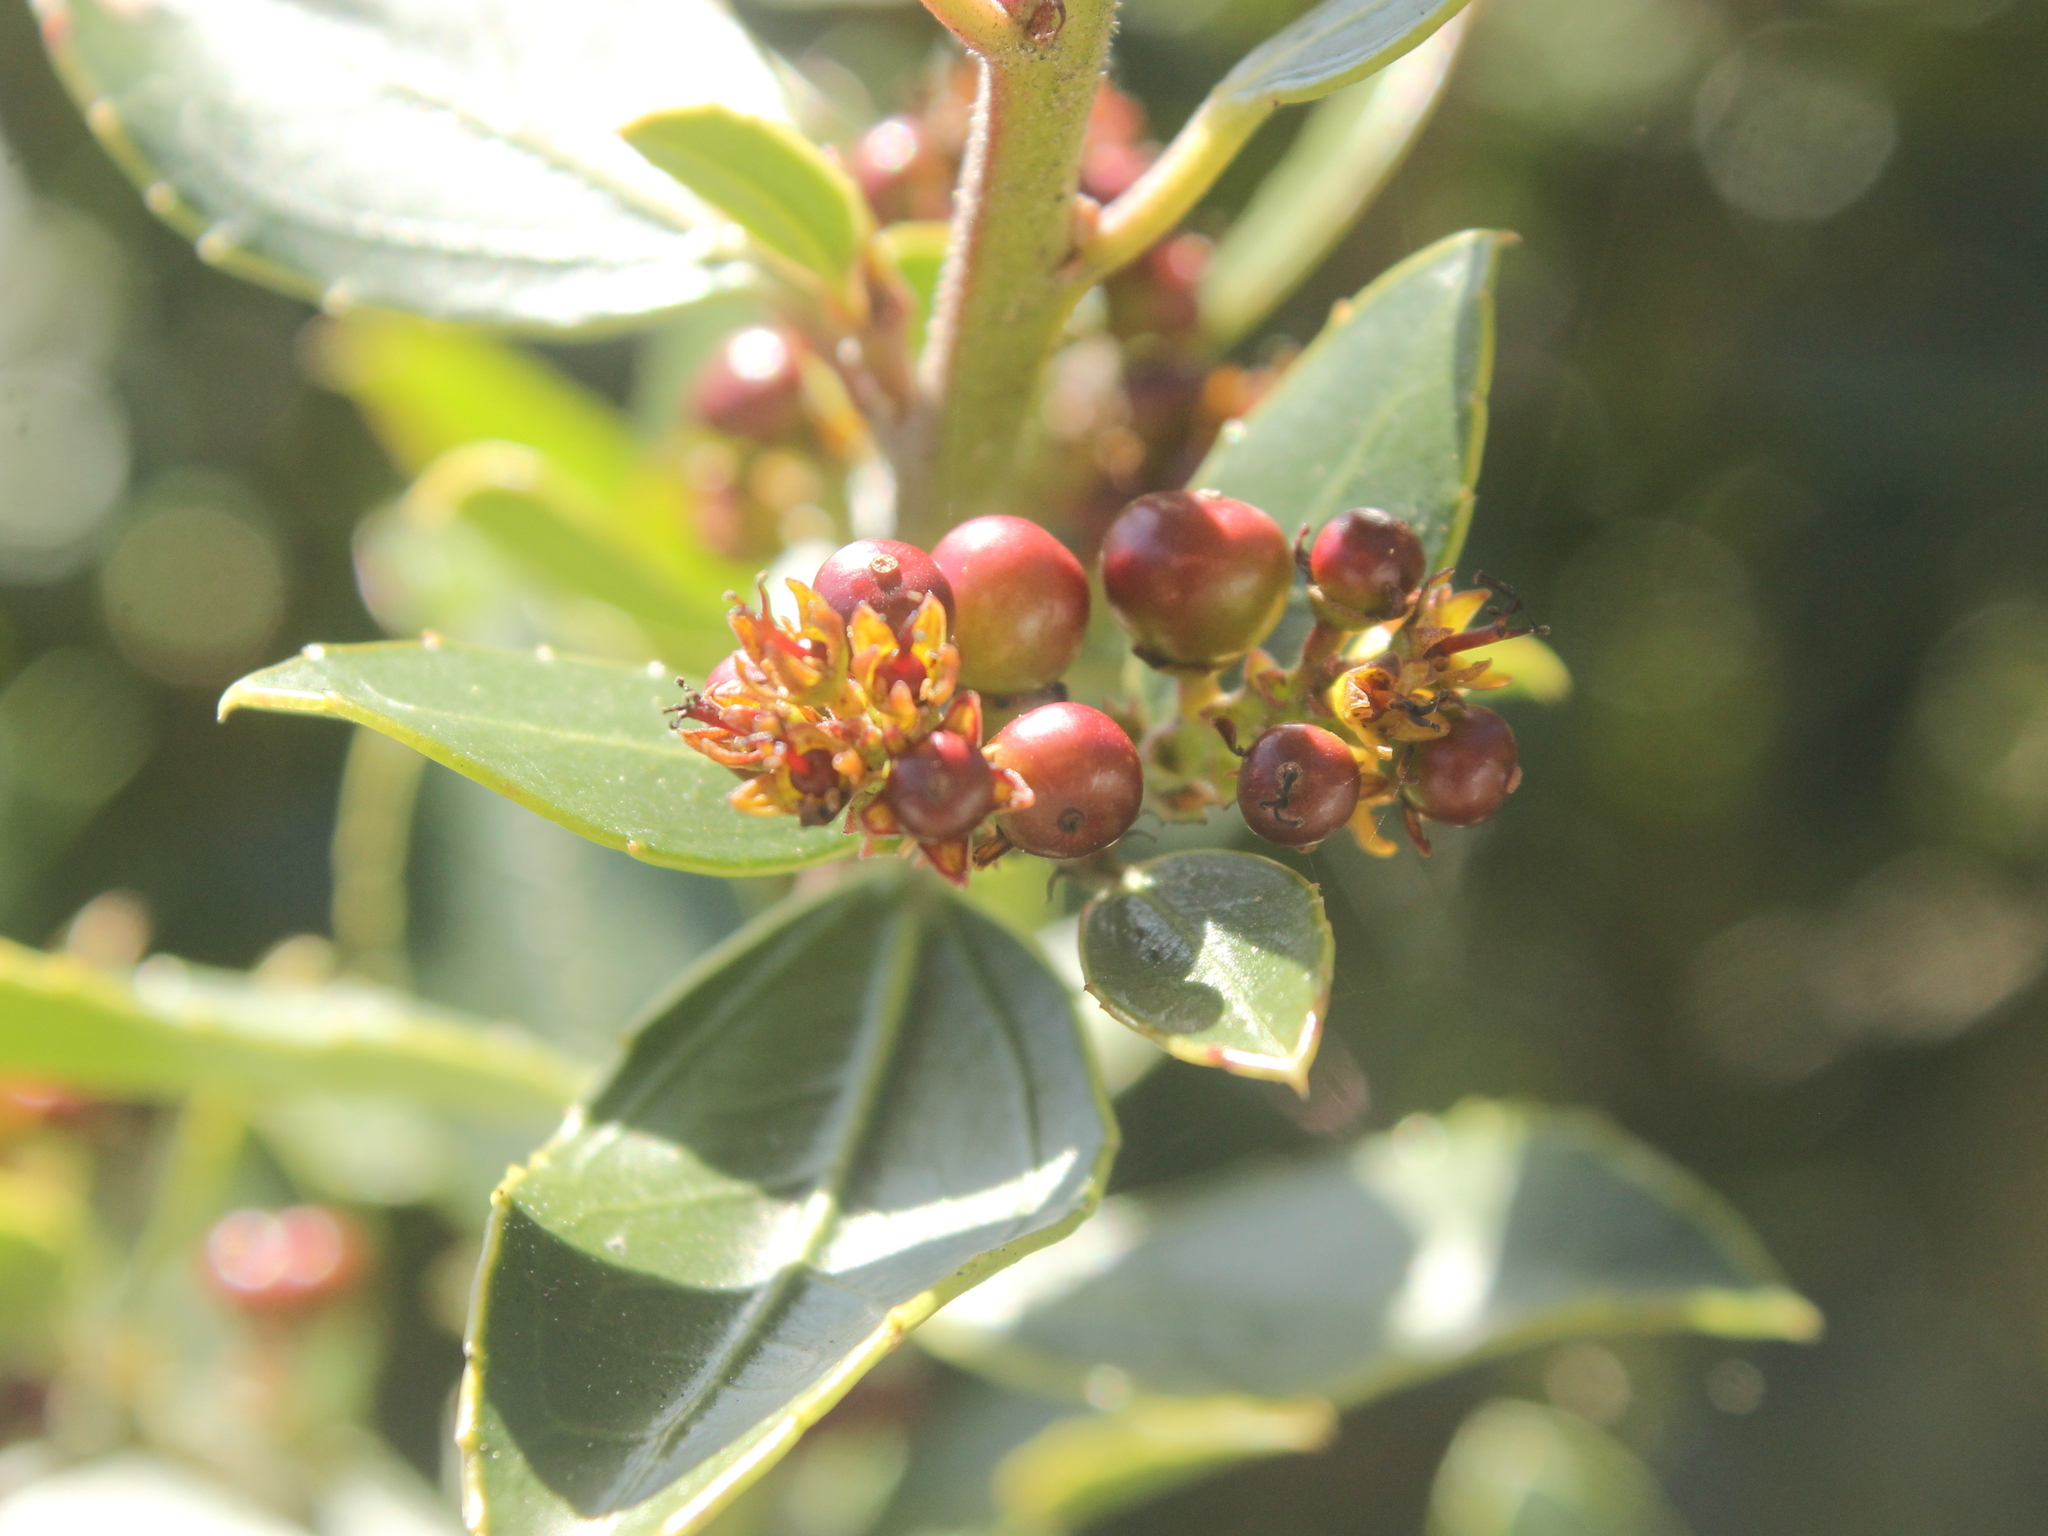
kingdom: Plantae
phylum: Tracheophyta
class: Magnoliopsida
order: Rosales
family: Rhamnaceae
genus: Rhamnus
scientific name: Rhamnus alaternus
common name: Mediterranean buckthorn
